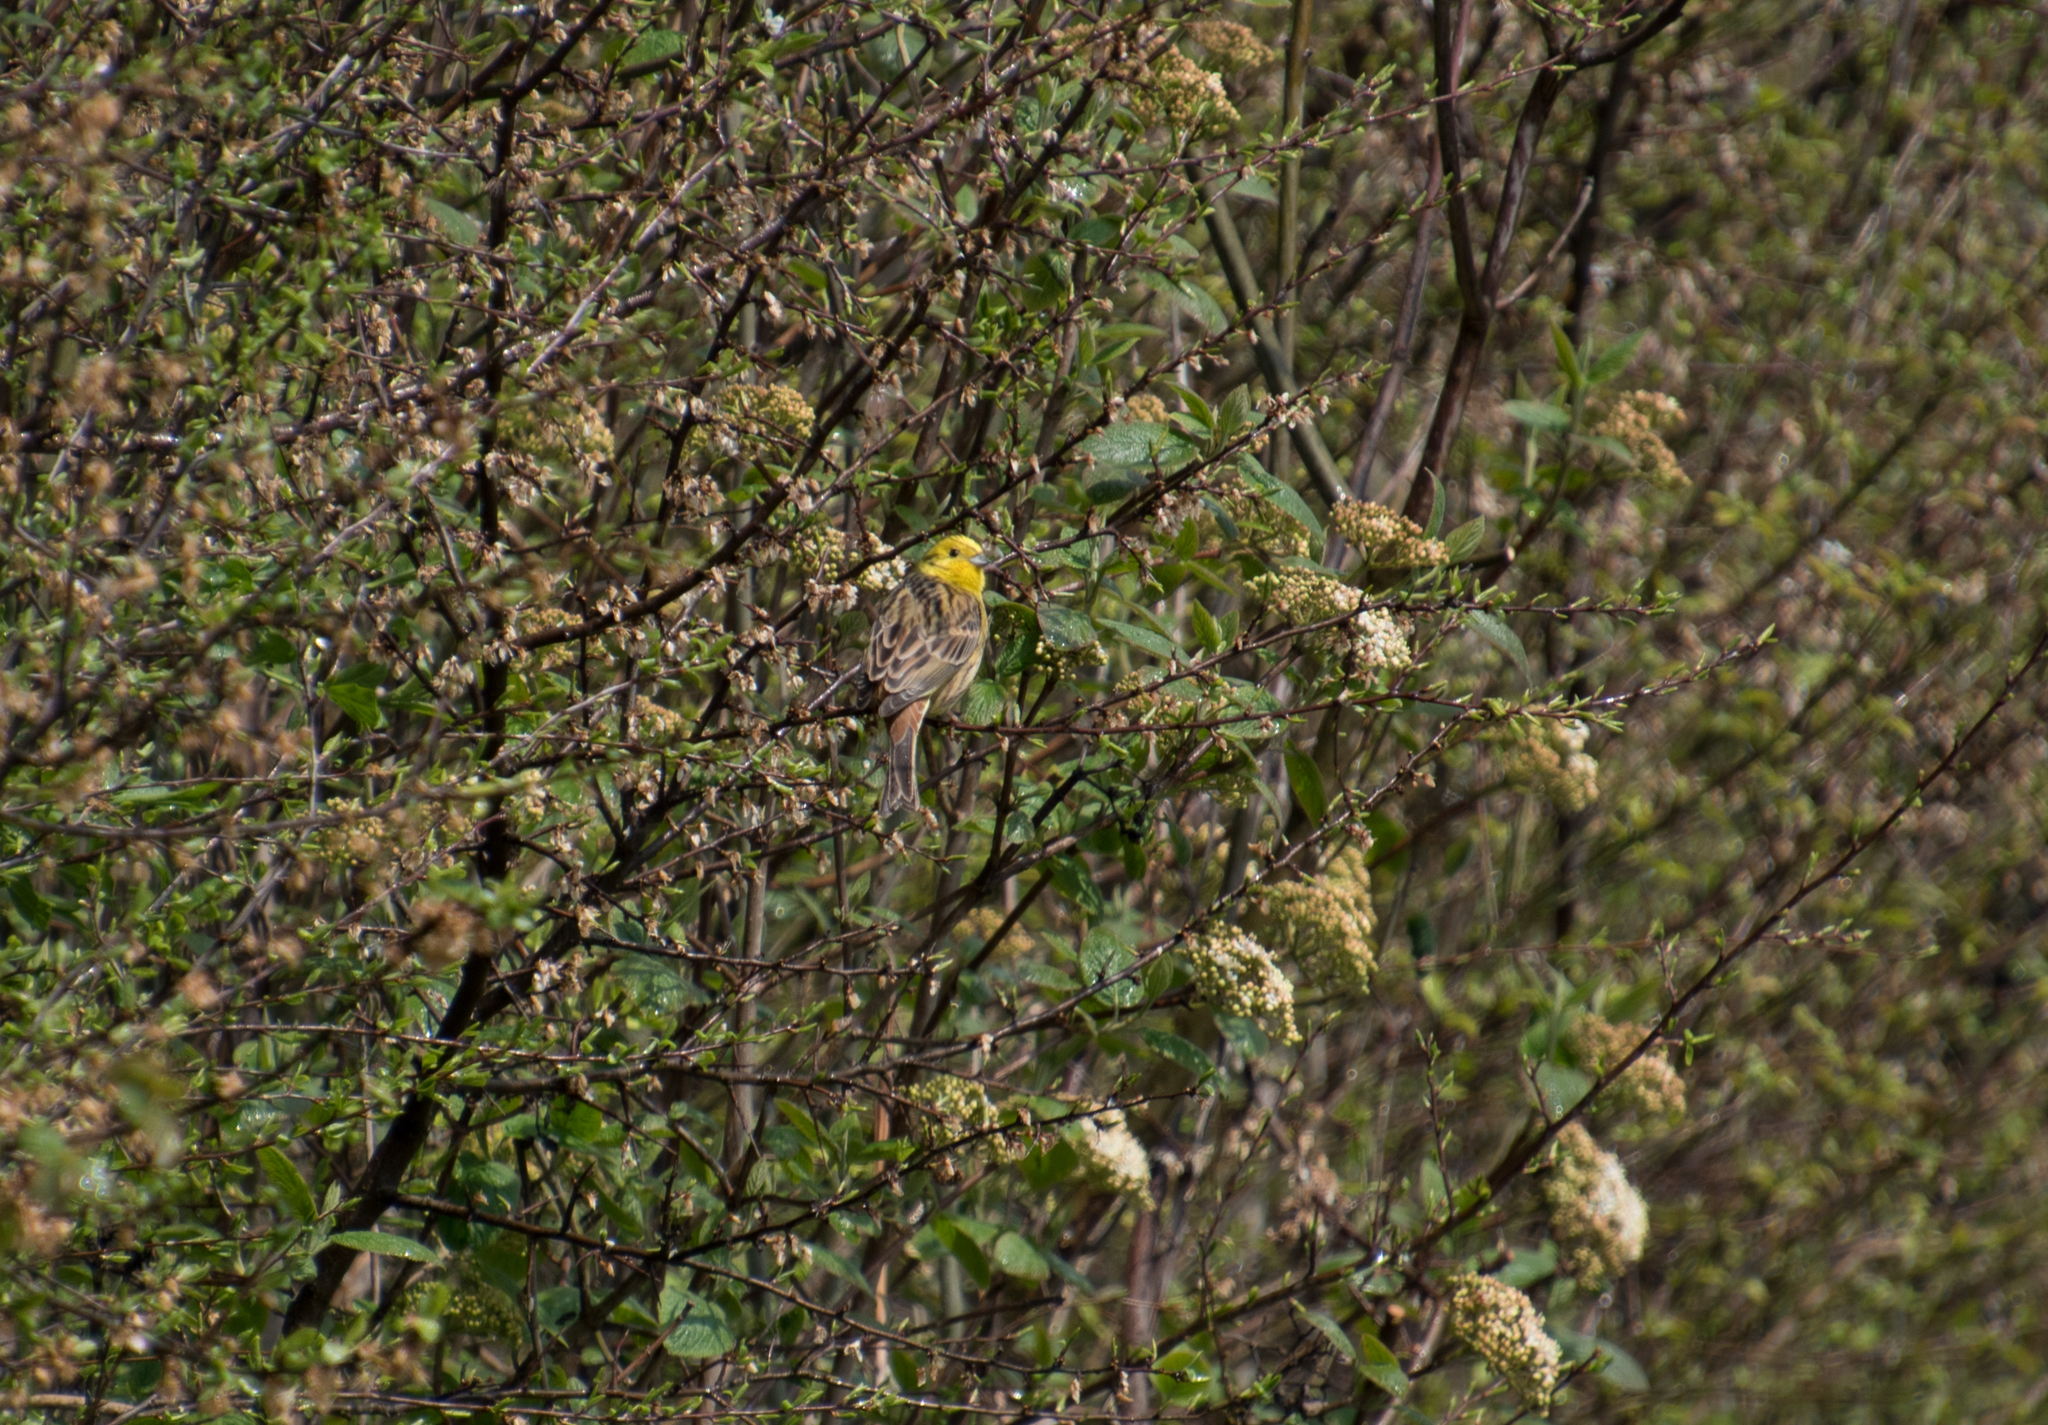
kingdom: Animalia
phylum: Chordata
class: Aves
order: Passeriformes
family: Emberizidae
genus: Emberiza
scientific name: Emberiza citrinella
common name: Yellowhammer
